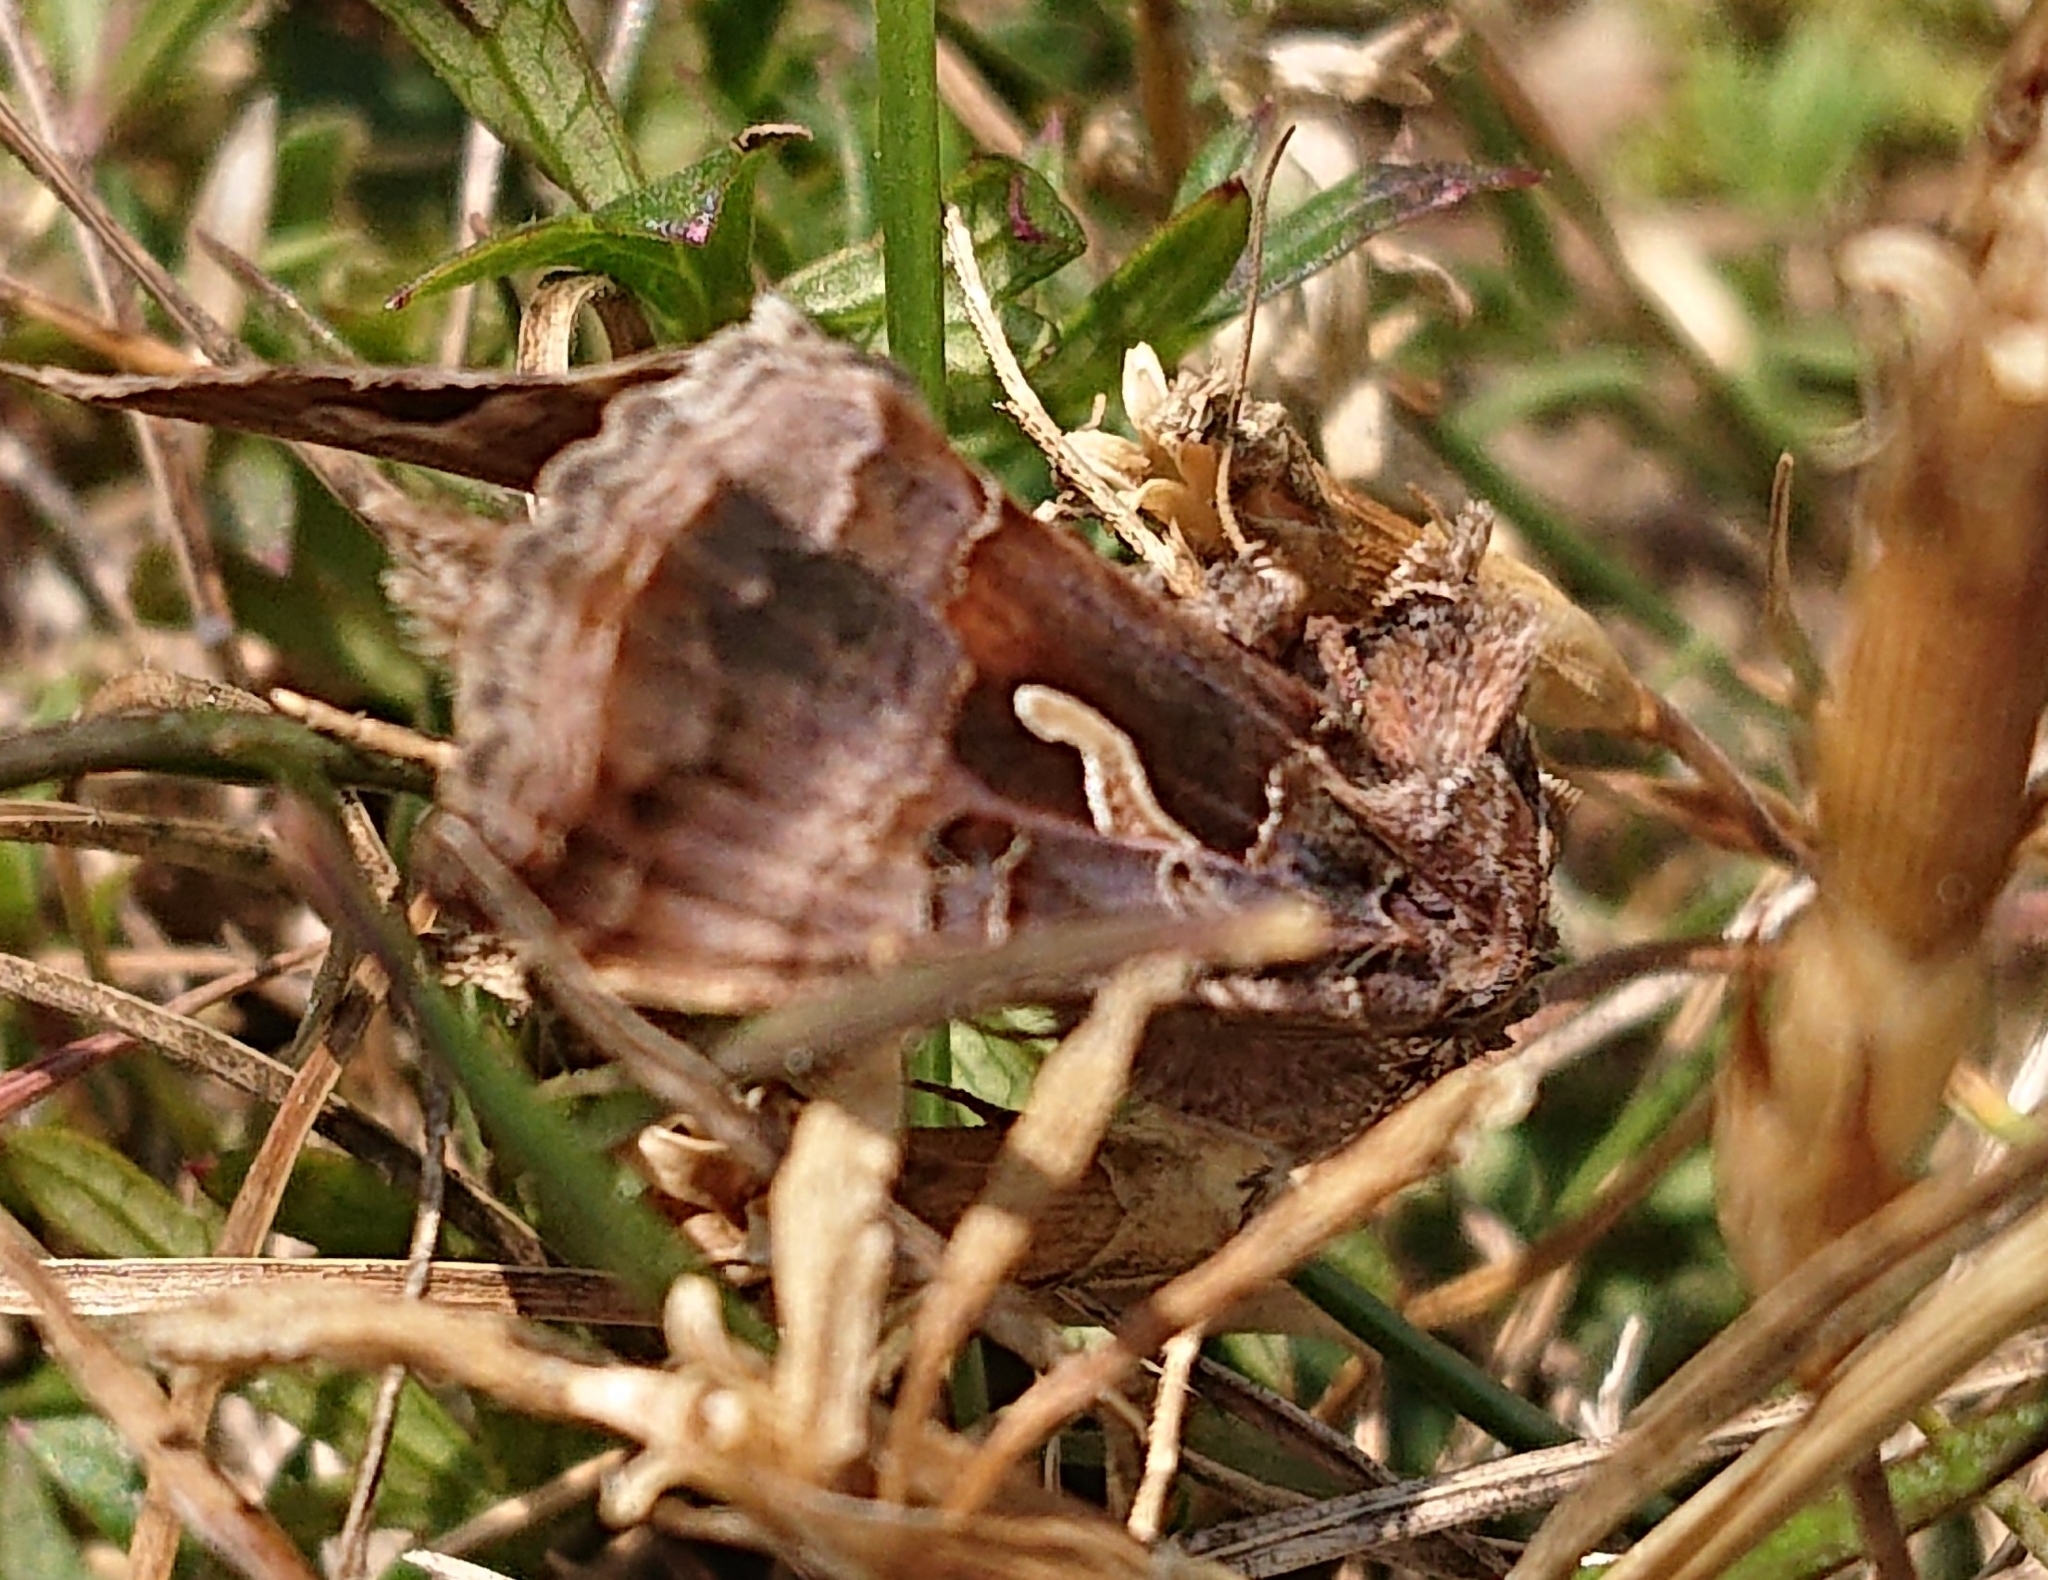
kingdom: Animalia
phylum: Arthropoda
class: Insecta
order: Lepidoptera
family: Noctuidae
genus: Autographa
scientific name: Autographa gamma
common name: Silver y
